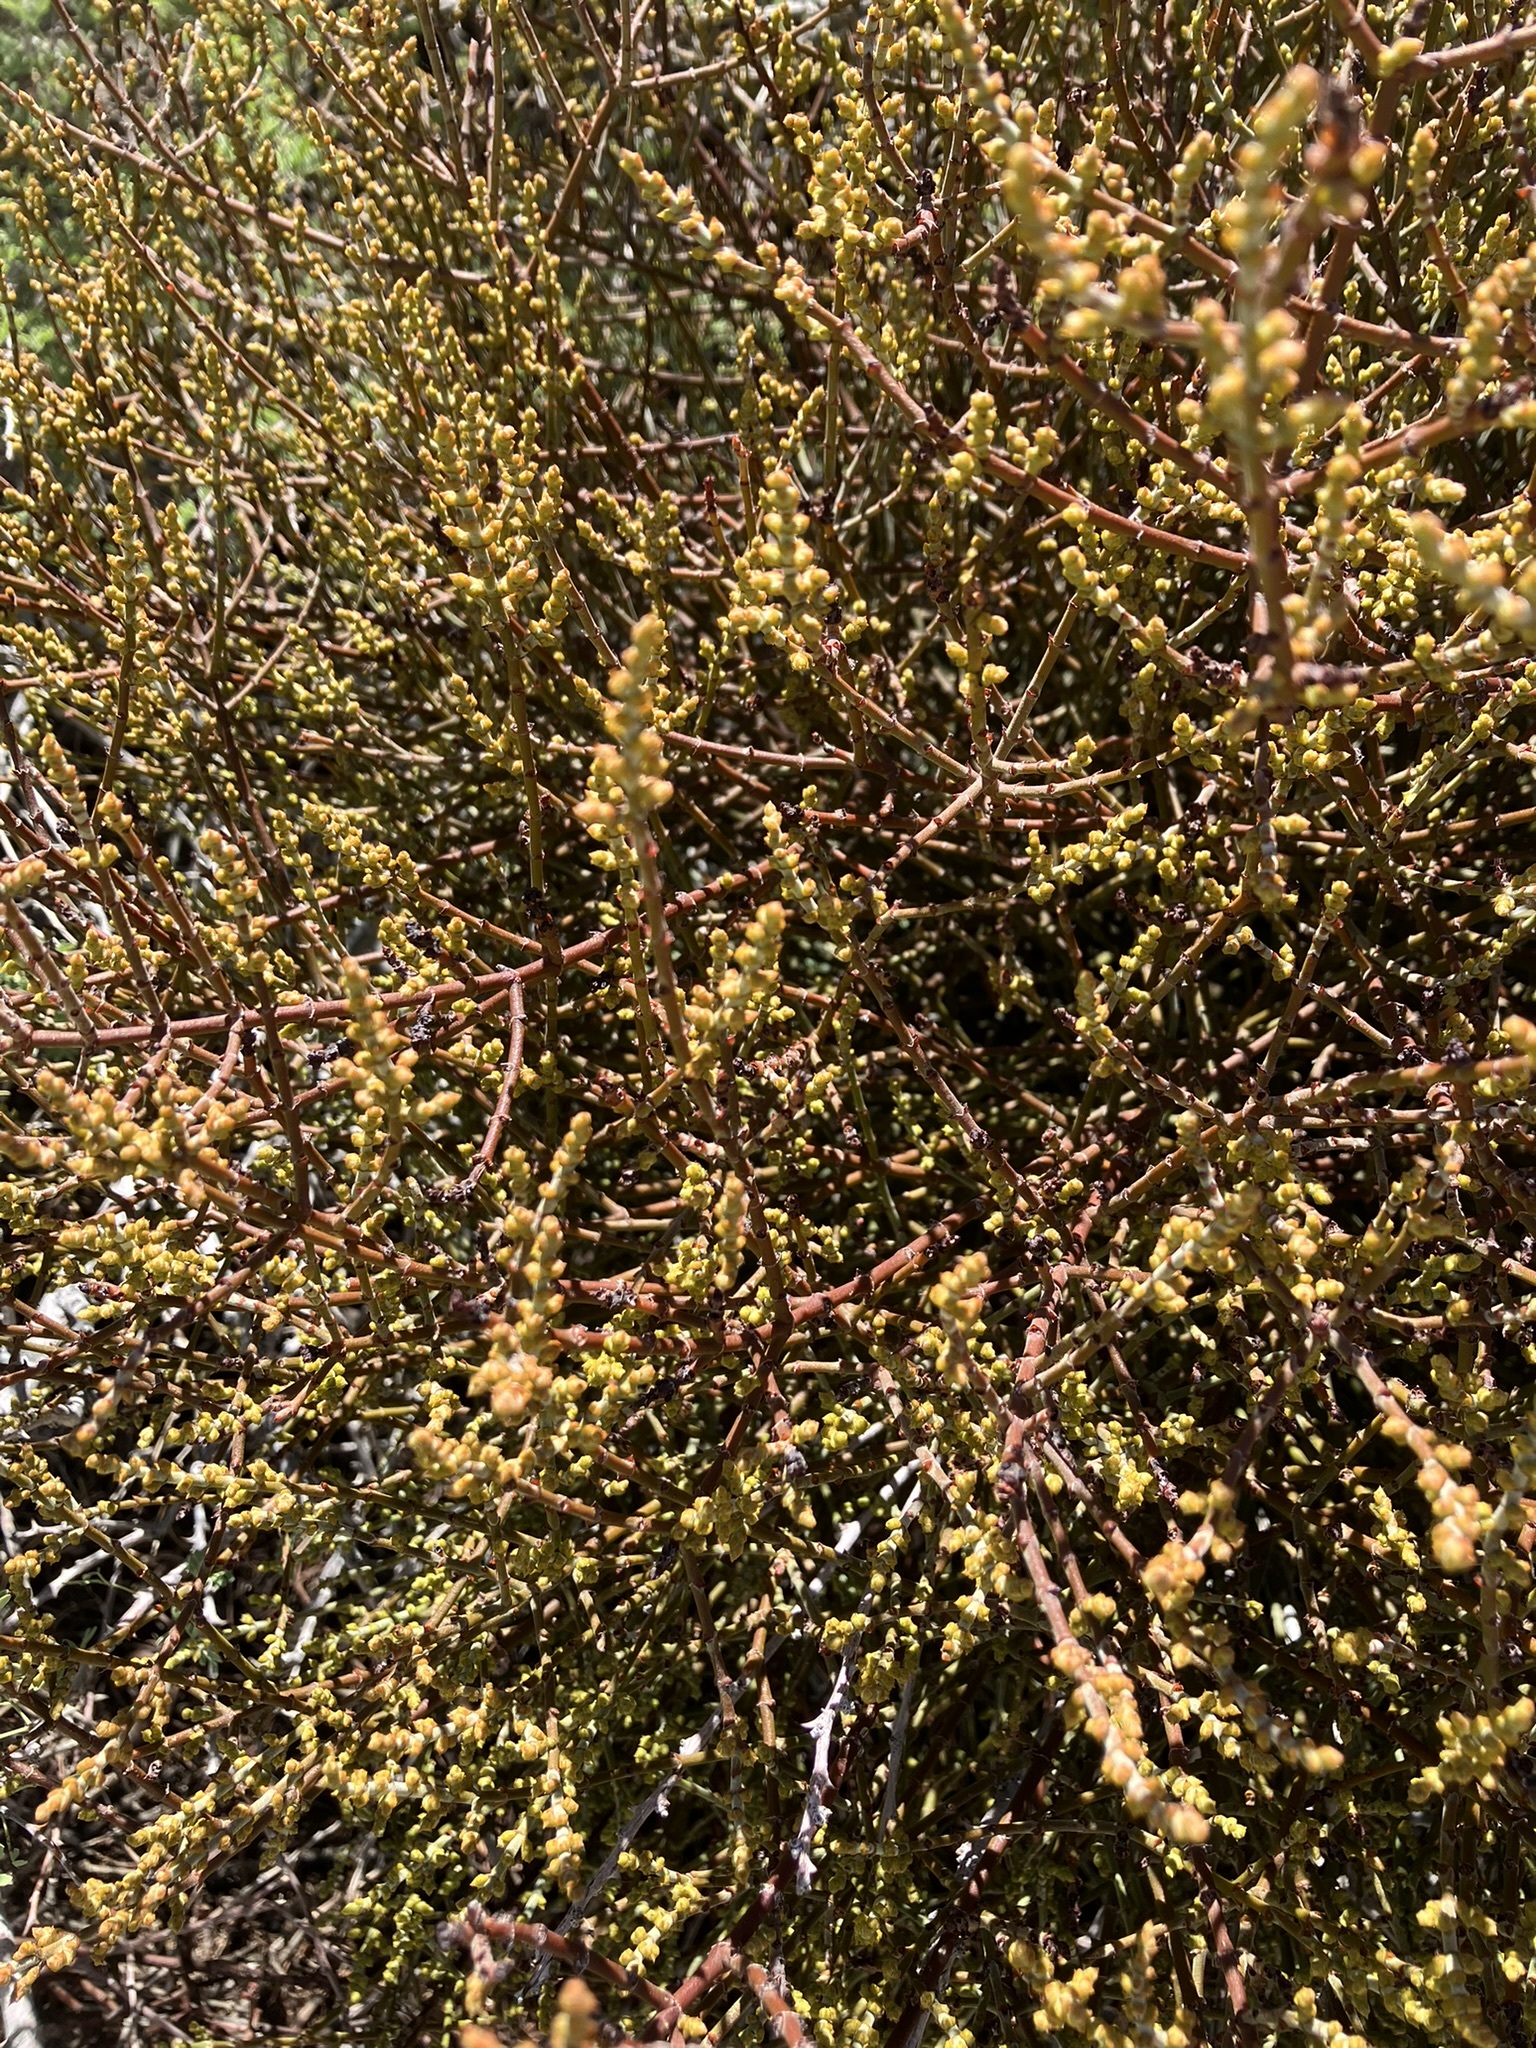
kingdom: Plantae
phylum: Tracheophyta
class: Magnoliopsida
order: Santalales
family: Viscaceae
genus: Phoradendron
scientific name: Phoradendron californicum
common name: Acacia mistletoe
